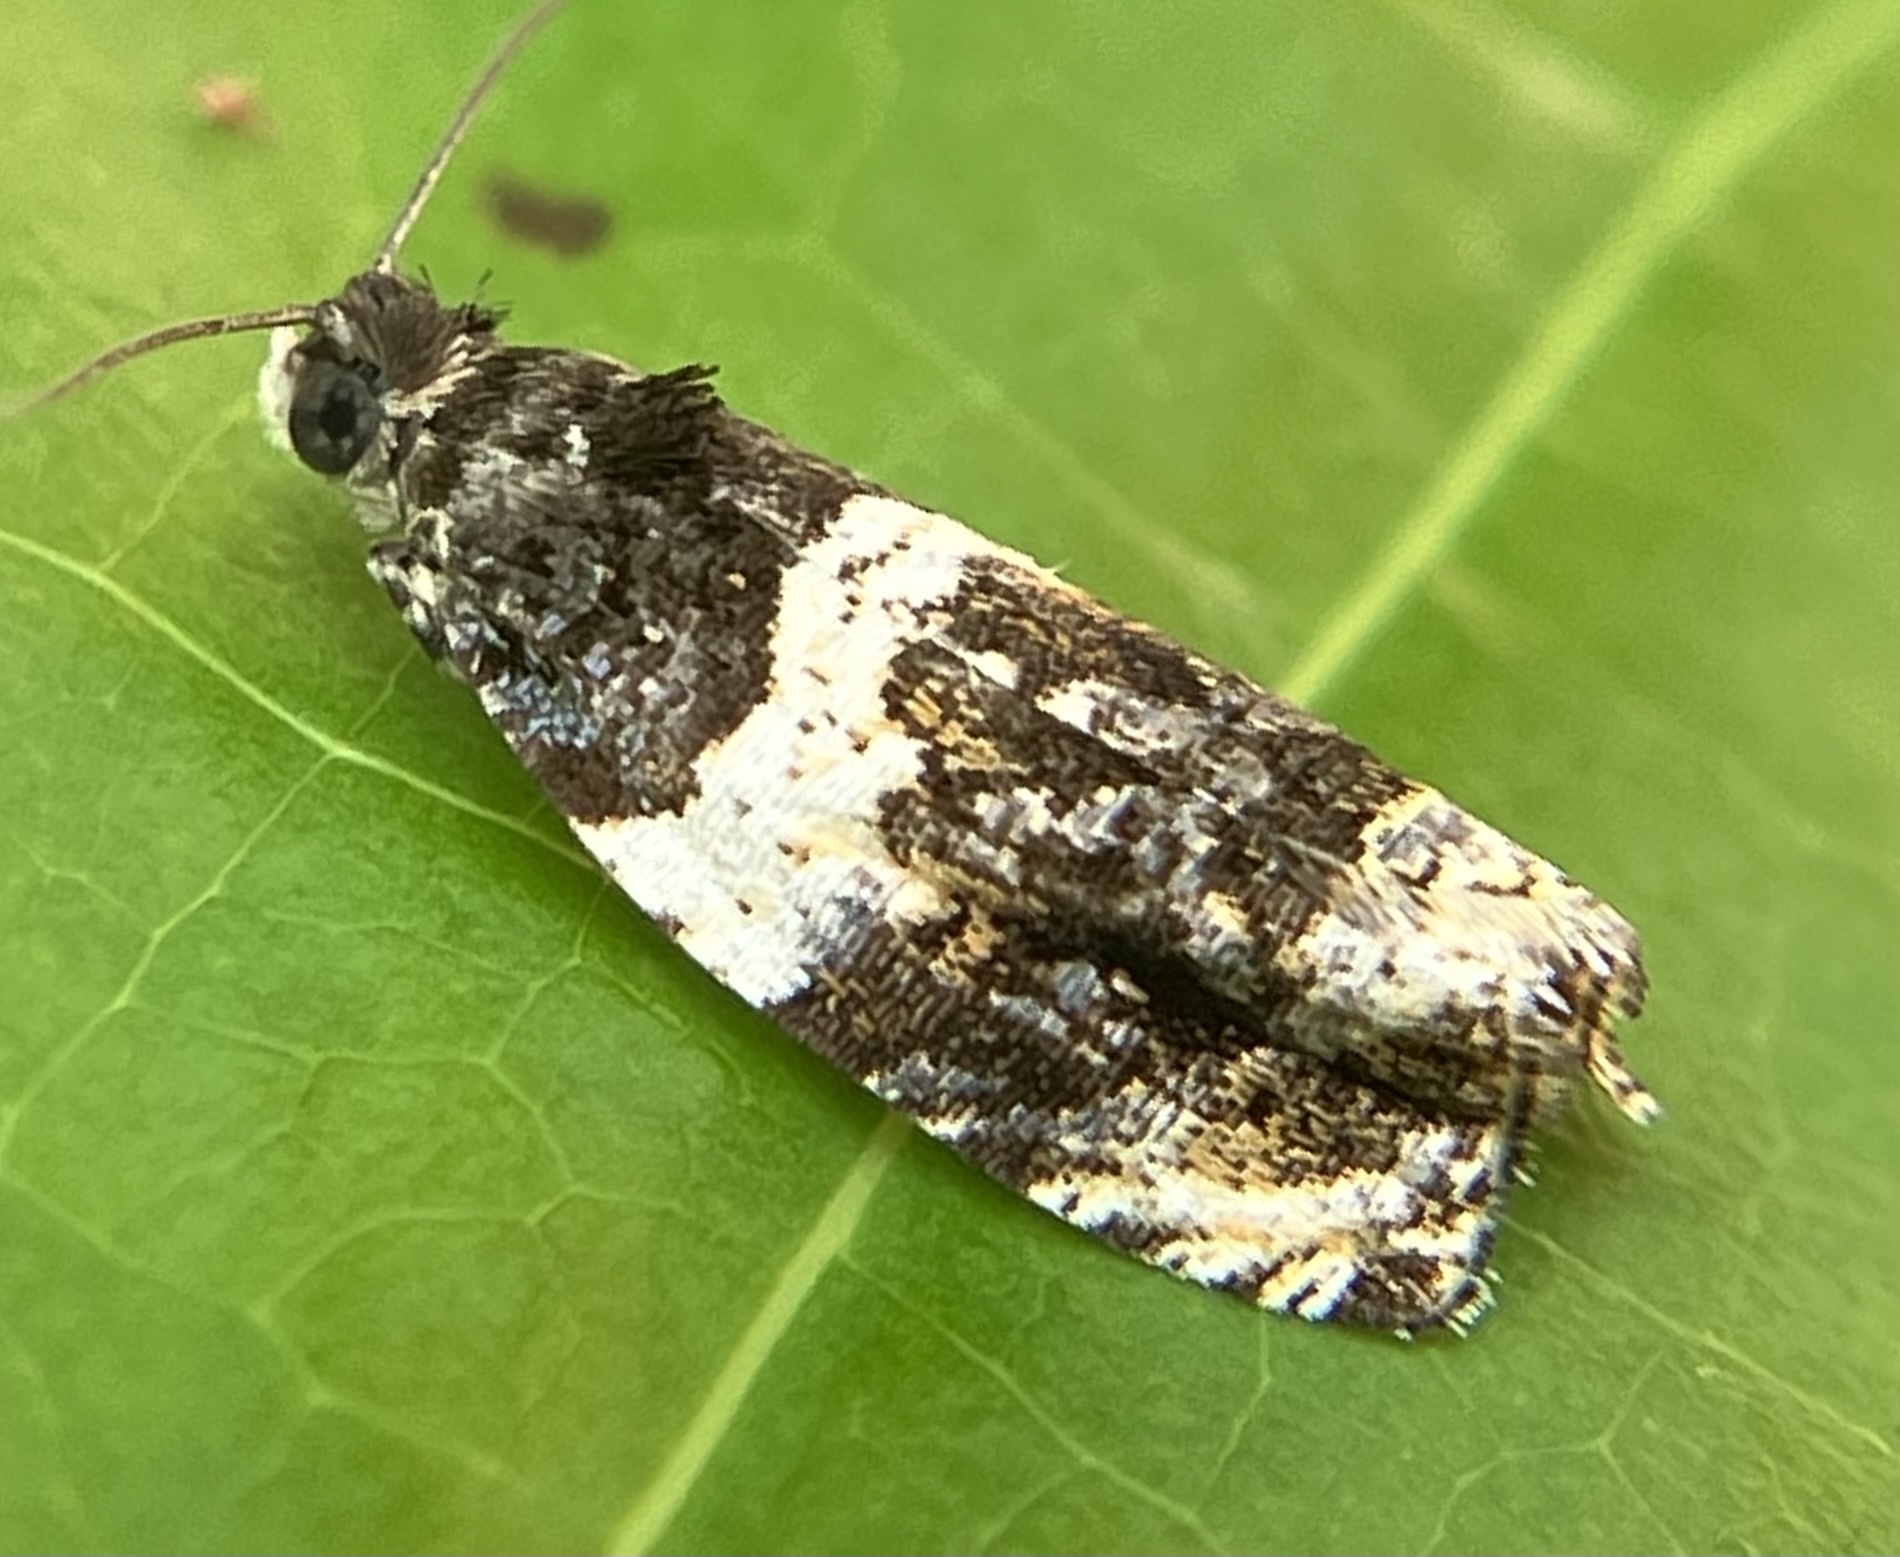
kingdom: Animalia
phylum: Arthropoda
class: Insecta
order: Lepidoptera
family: Tortricidae
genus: Olethreutes
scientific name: Olethreutes fasciatana
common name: Banded olethreutes moth
